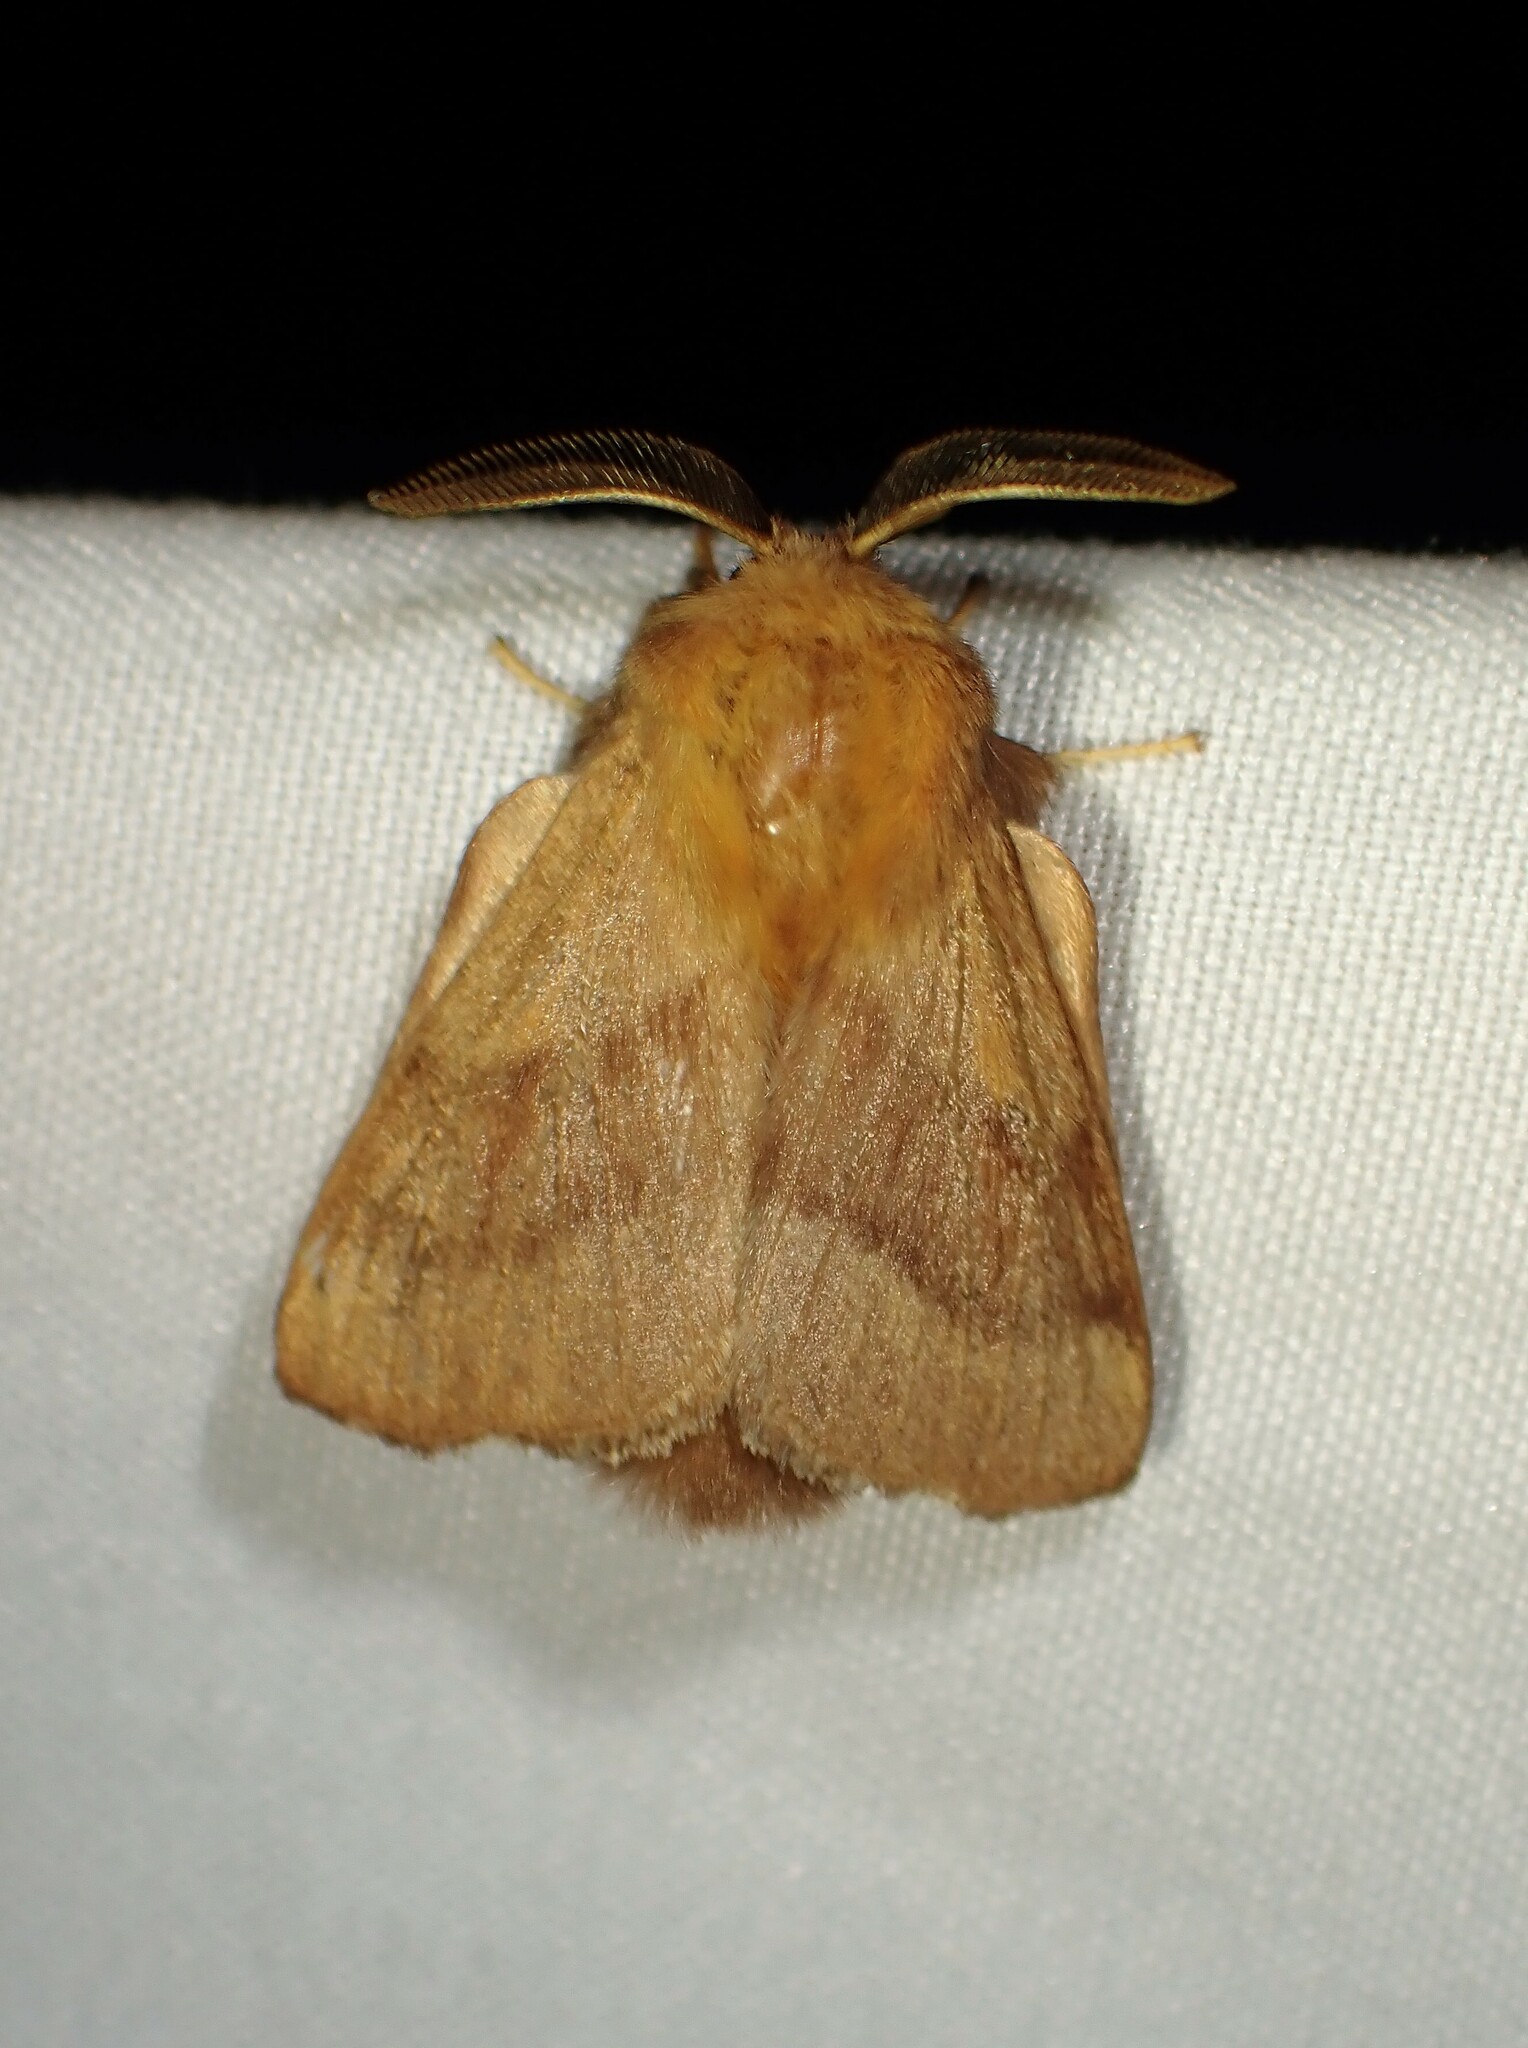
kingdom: Animalia
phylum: Arthropoda
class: Insecta
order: Lepidoptera
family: Lasiocampidae
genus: Malacosoma
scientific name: Malacosoma disstria
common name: Forest tent caterpillar
